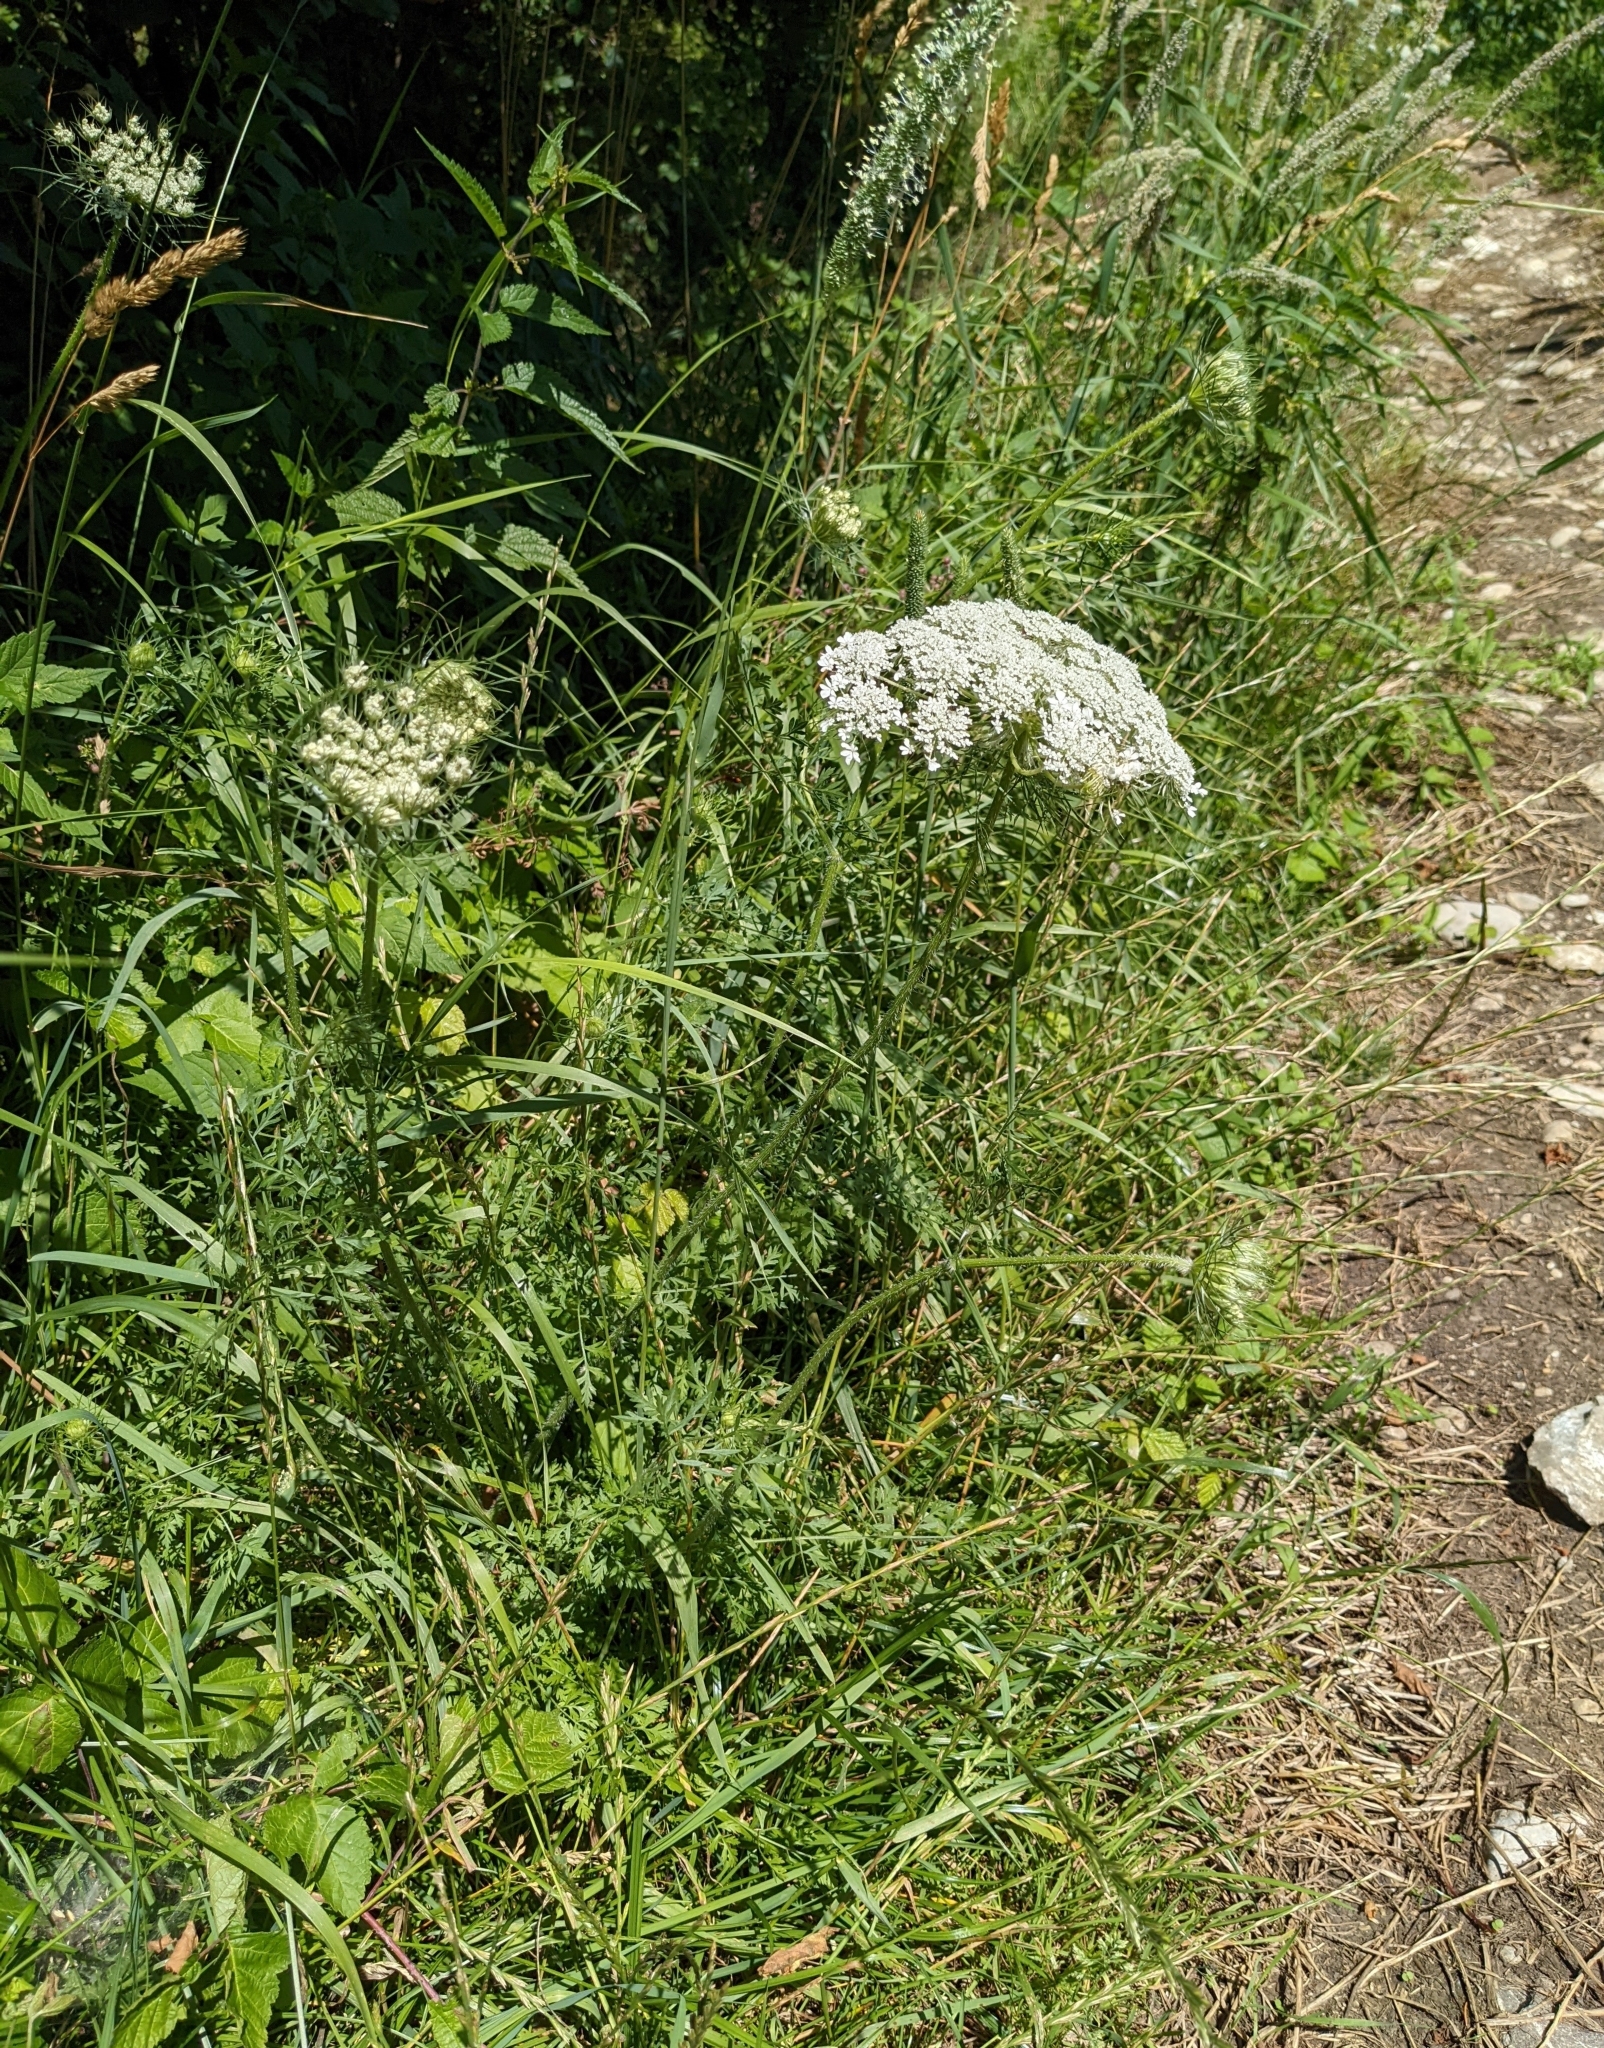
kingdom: Plantae
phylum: Tracheophyta
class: Magnoliopsida
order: Apiales
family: Apiaceae
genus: Daucus
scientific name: Daucus carota
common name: Wild carrot
